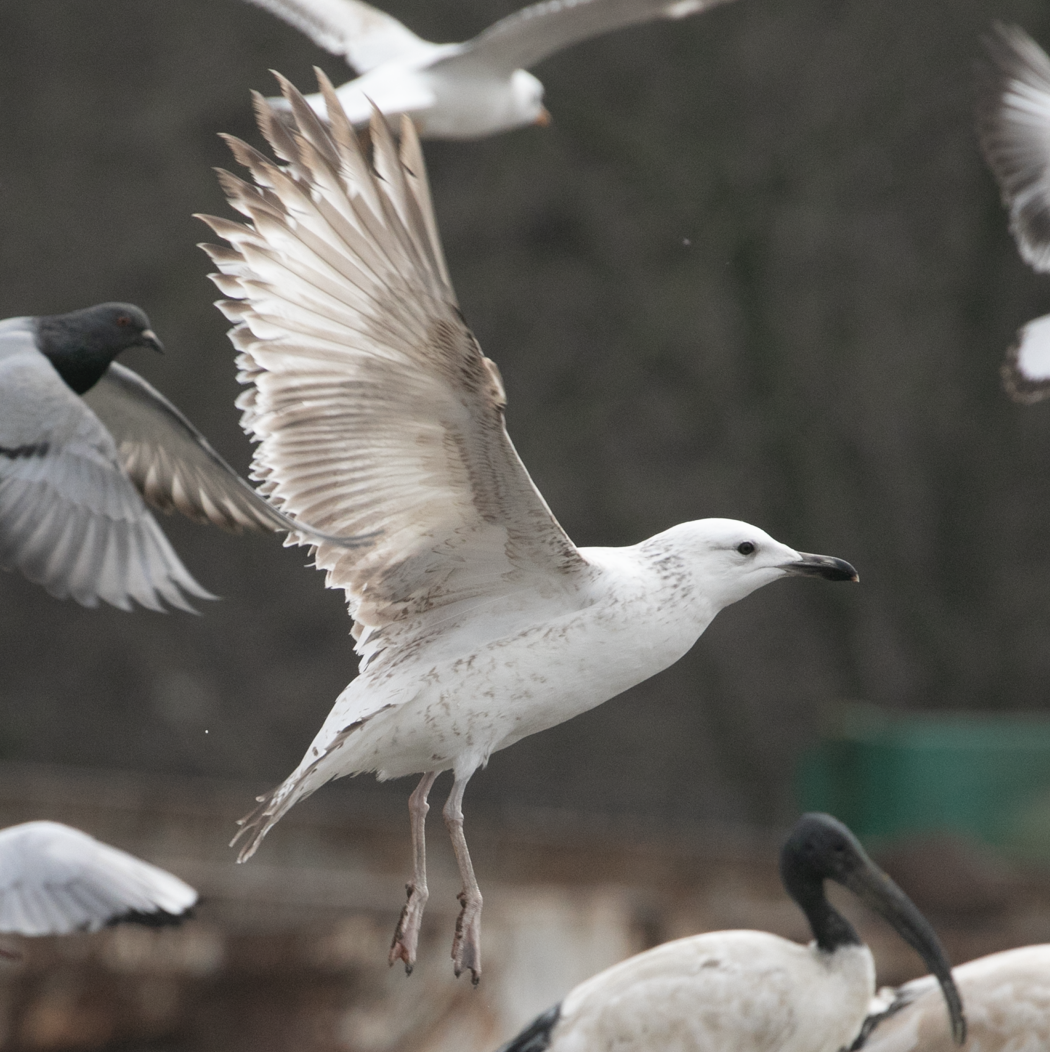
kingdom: Animalia
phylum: Chordata
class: Aves
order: Charadriiformes
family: Laridae
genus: Larus
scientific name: Larus cachinnans
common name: Caspian gull
